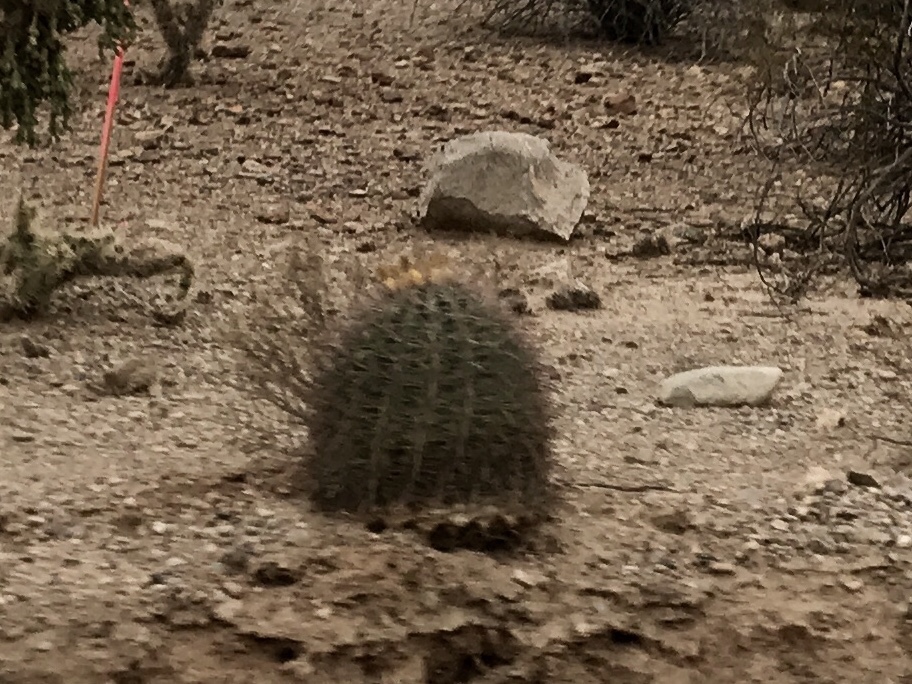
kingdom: Plantae
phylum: Tracheophyta
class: Magnoliopsida
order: Caryophyllales
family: Cactaceae
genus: Ferocactus
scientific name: Ferocactus wislizeni
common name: Candy barrel cactus
